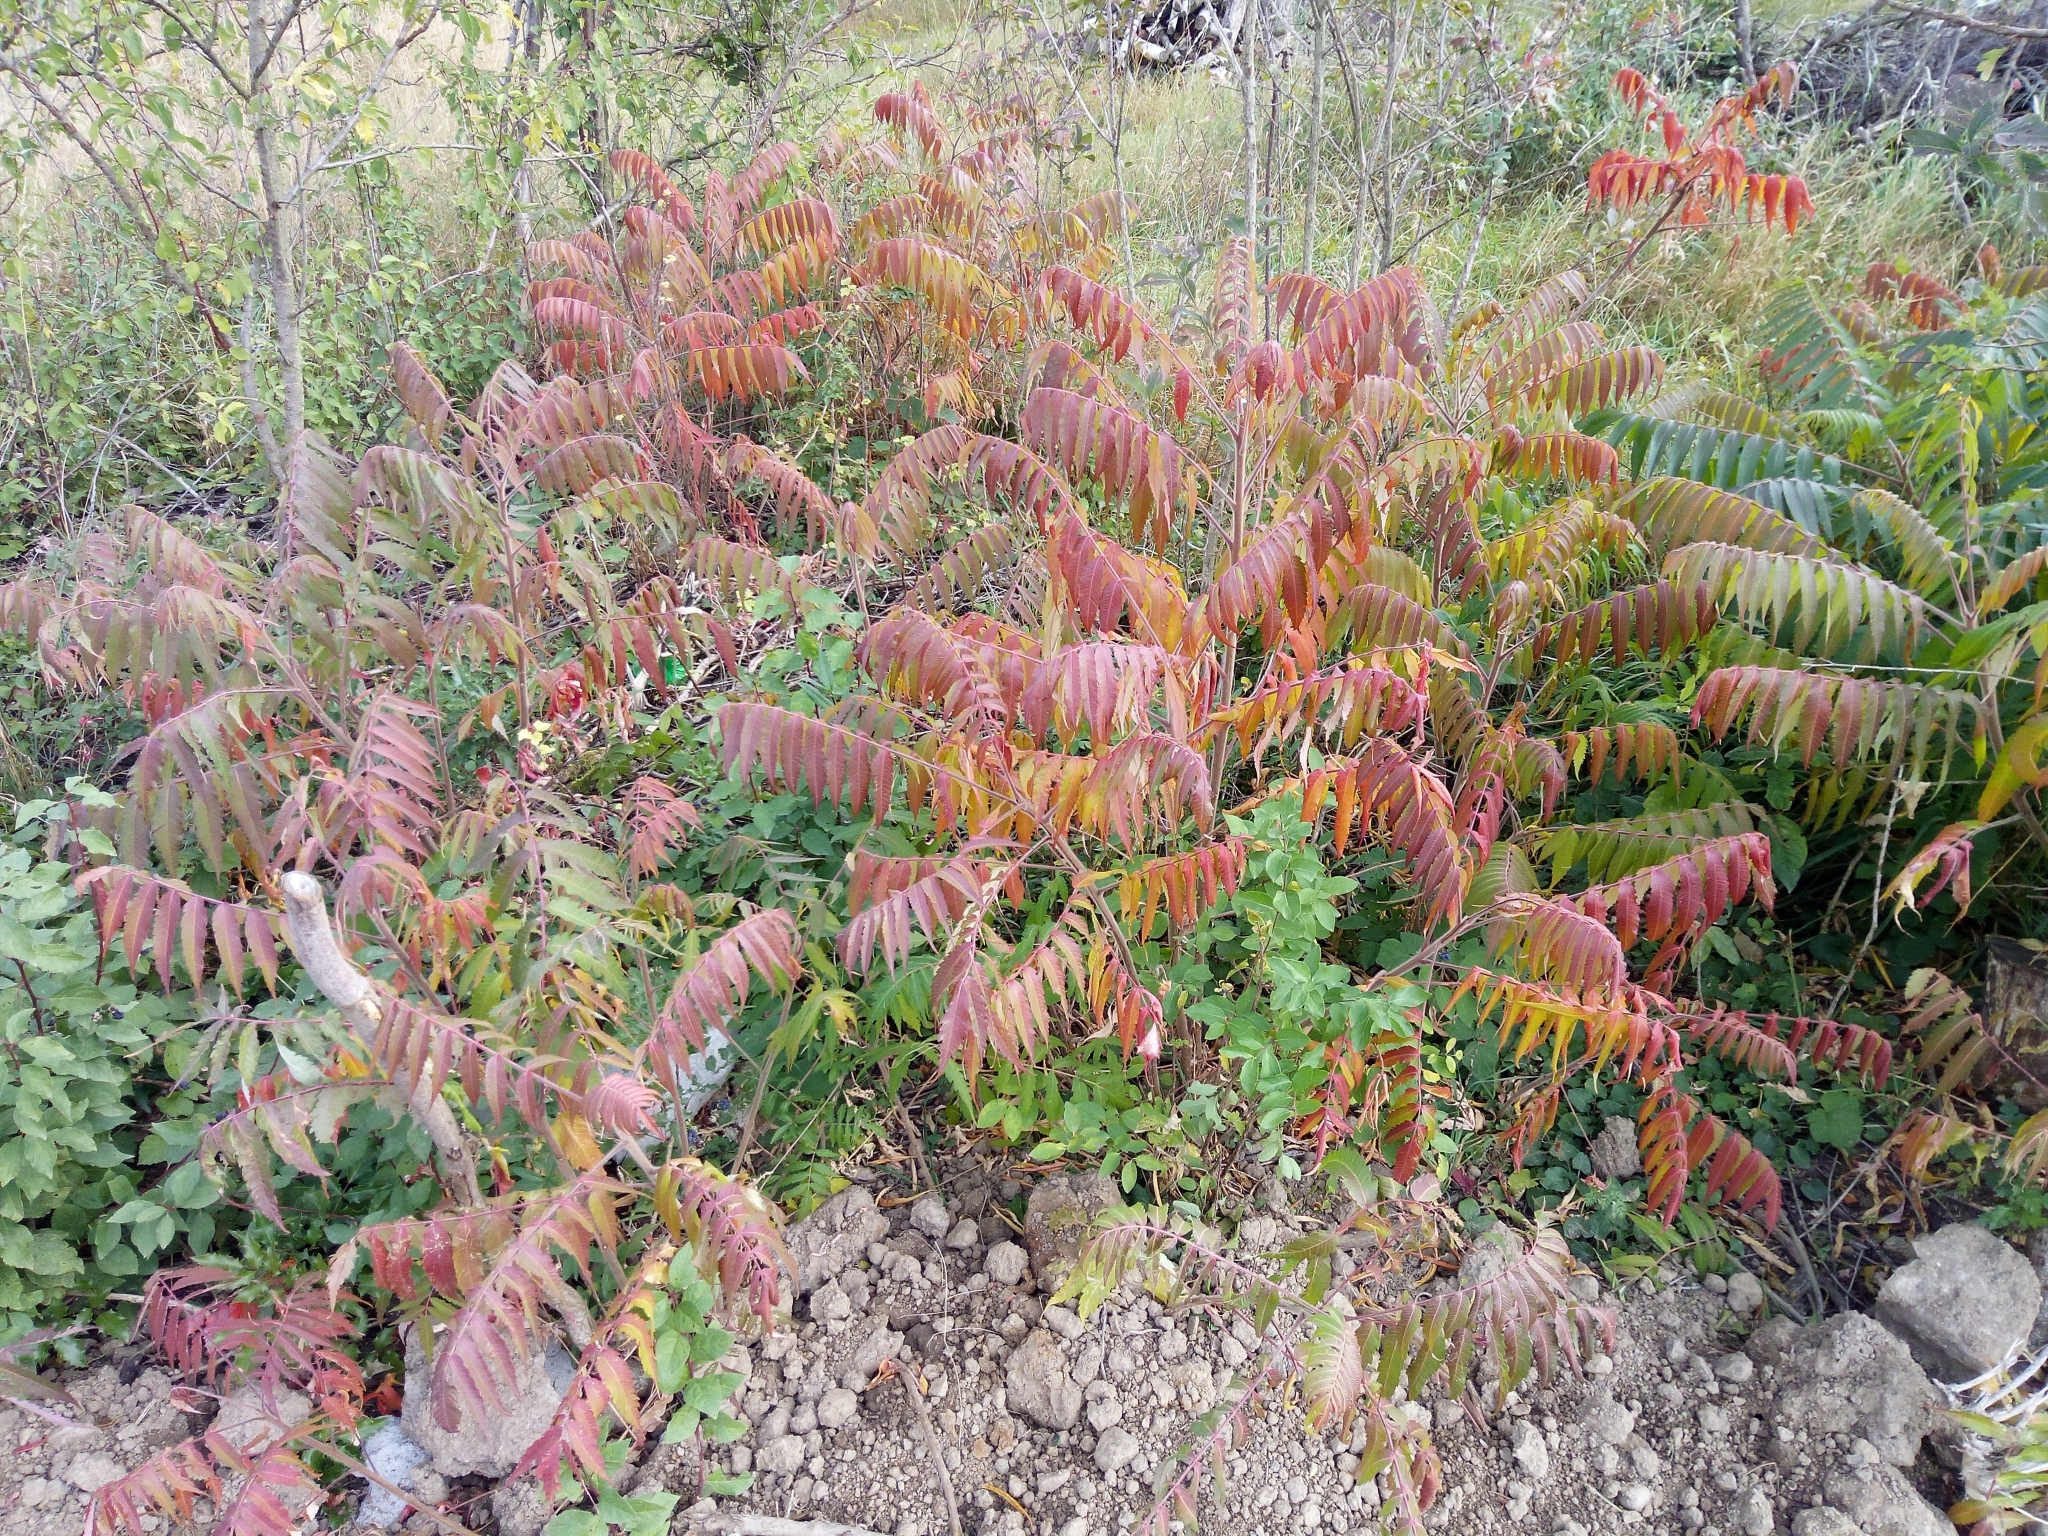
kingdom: Plantae
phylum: Tracheophyta
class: Magnoliopsida
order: Sapindales
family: Anacardiaceae
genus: Rhus
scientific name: Rhus typhina
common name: Staghorn sumac
